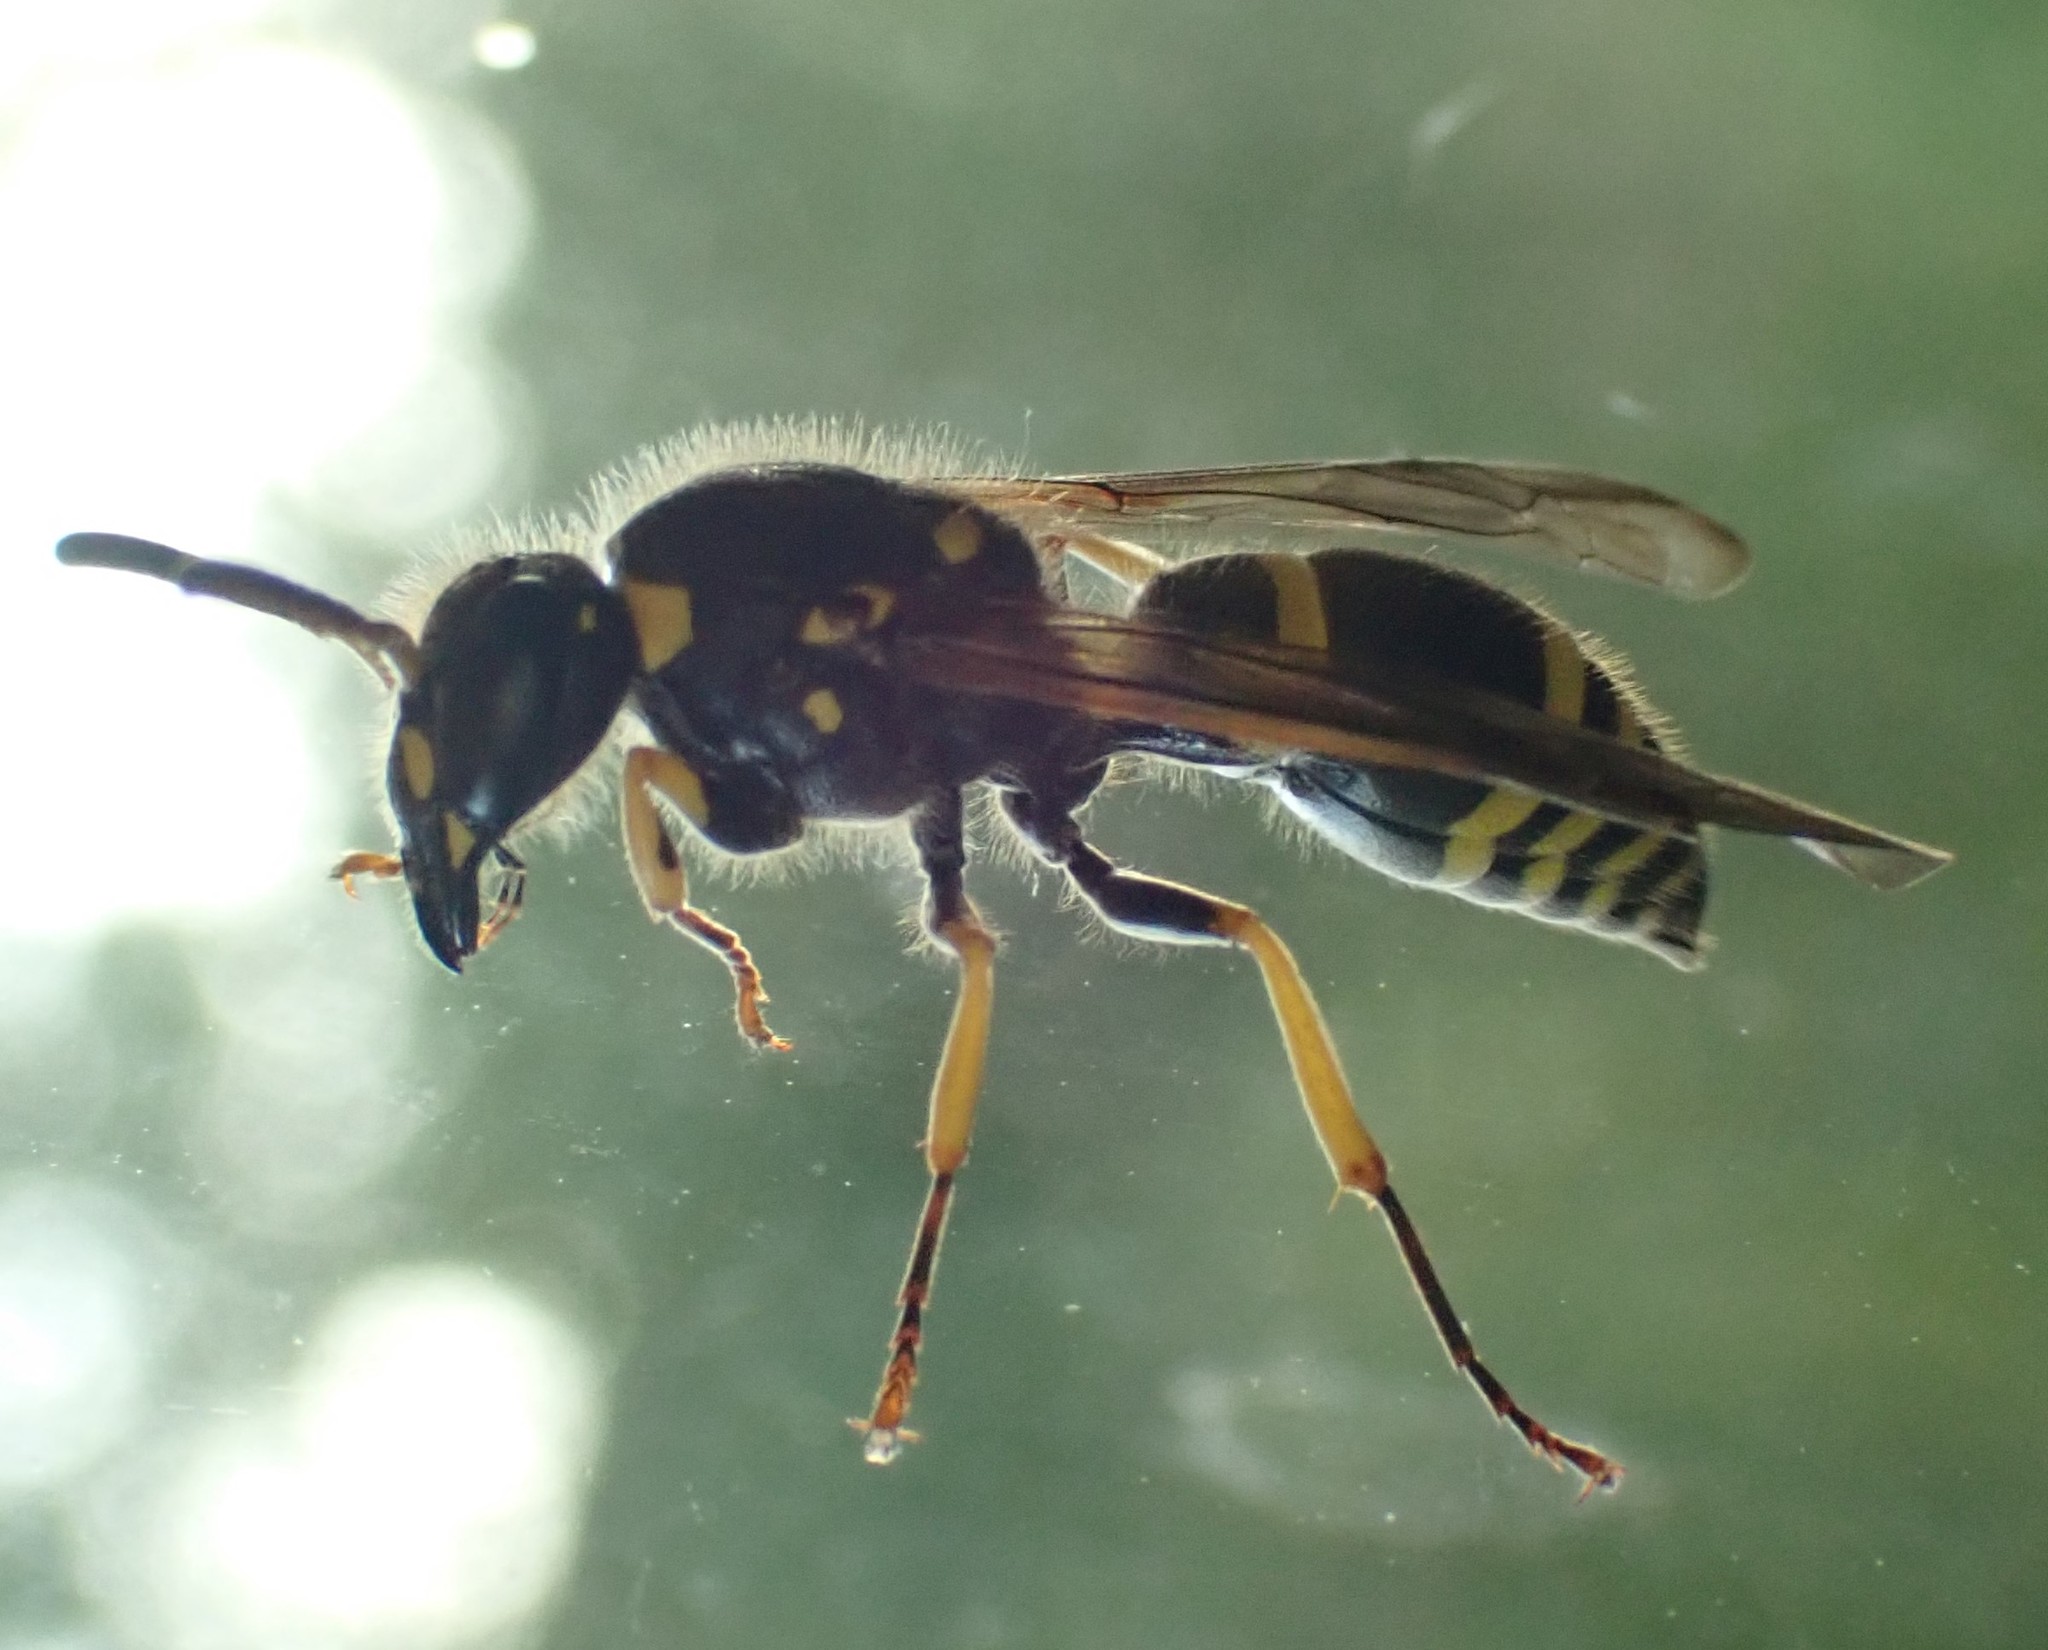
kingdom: Animalia
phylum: Arthropoda
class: Insecta
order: Hymenoptera
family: Vespidae
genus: Ancistrocerus
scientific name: Ancistrocerus nigricornis
